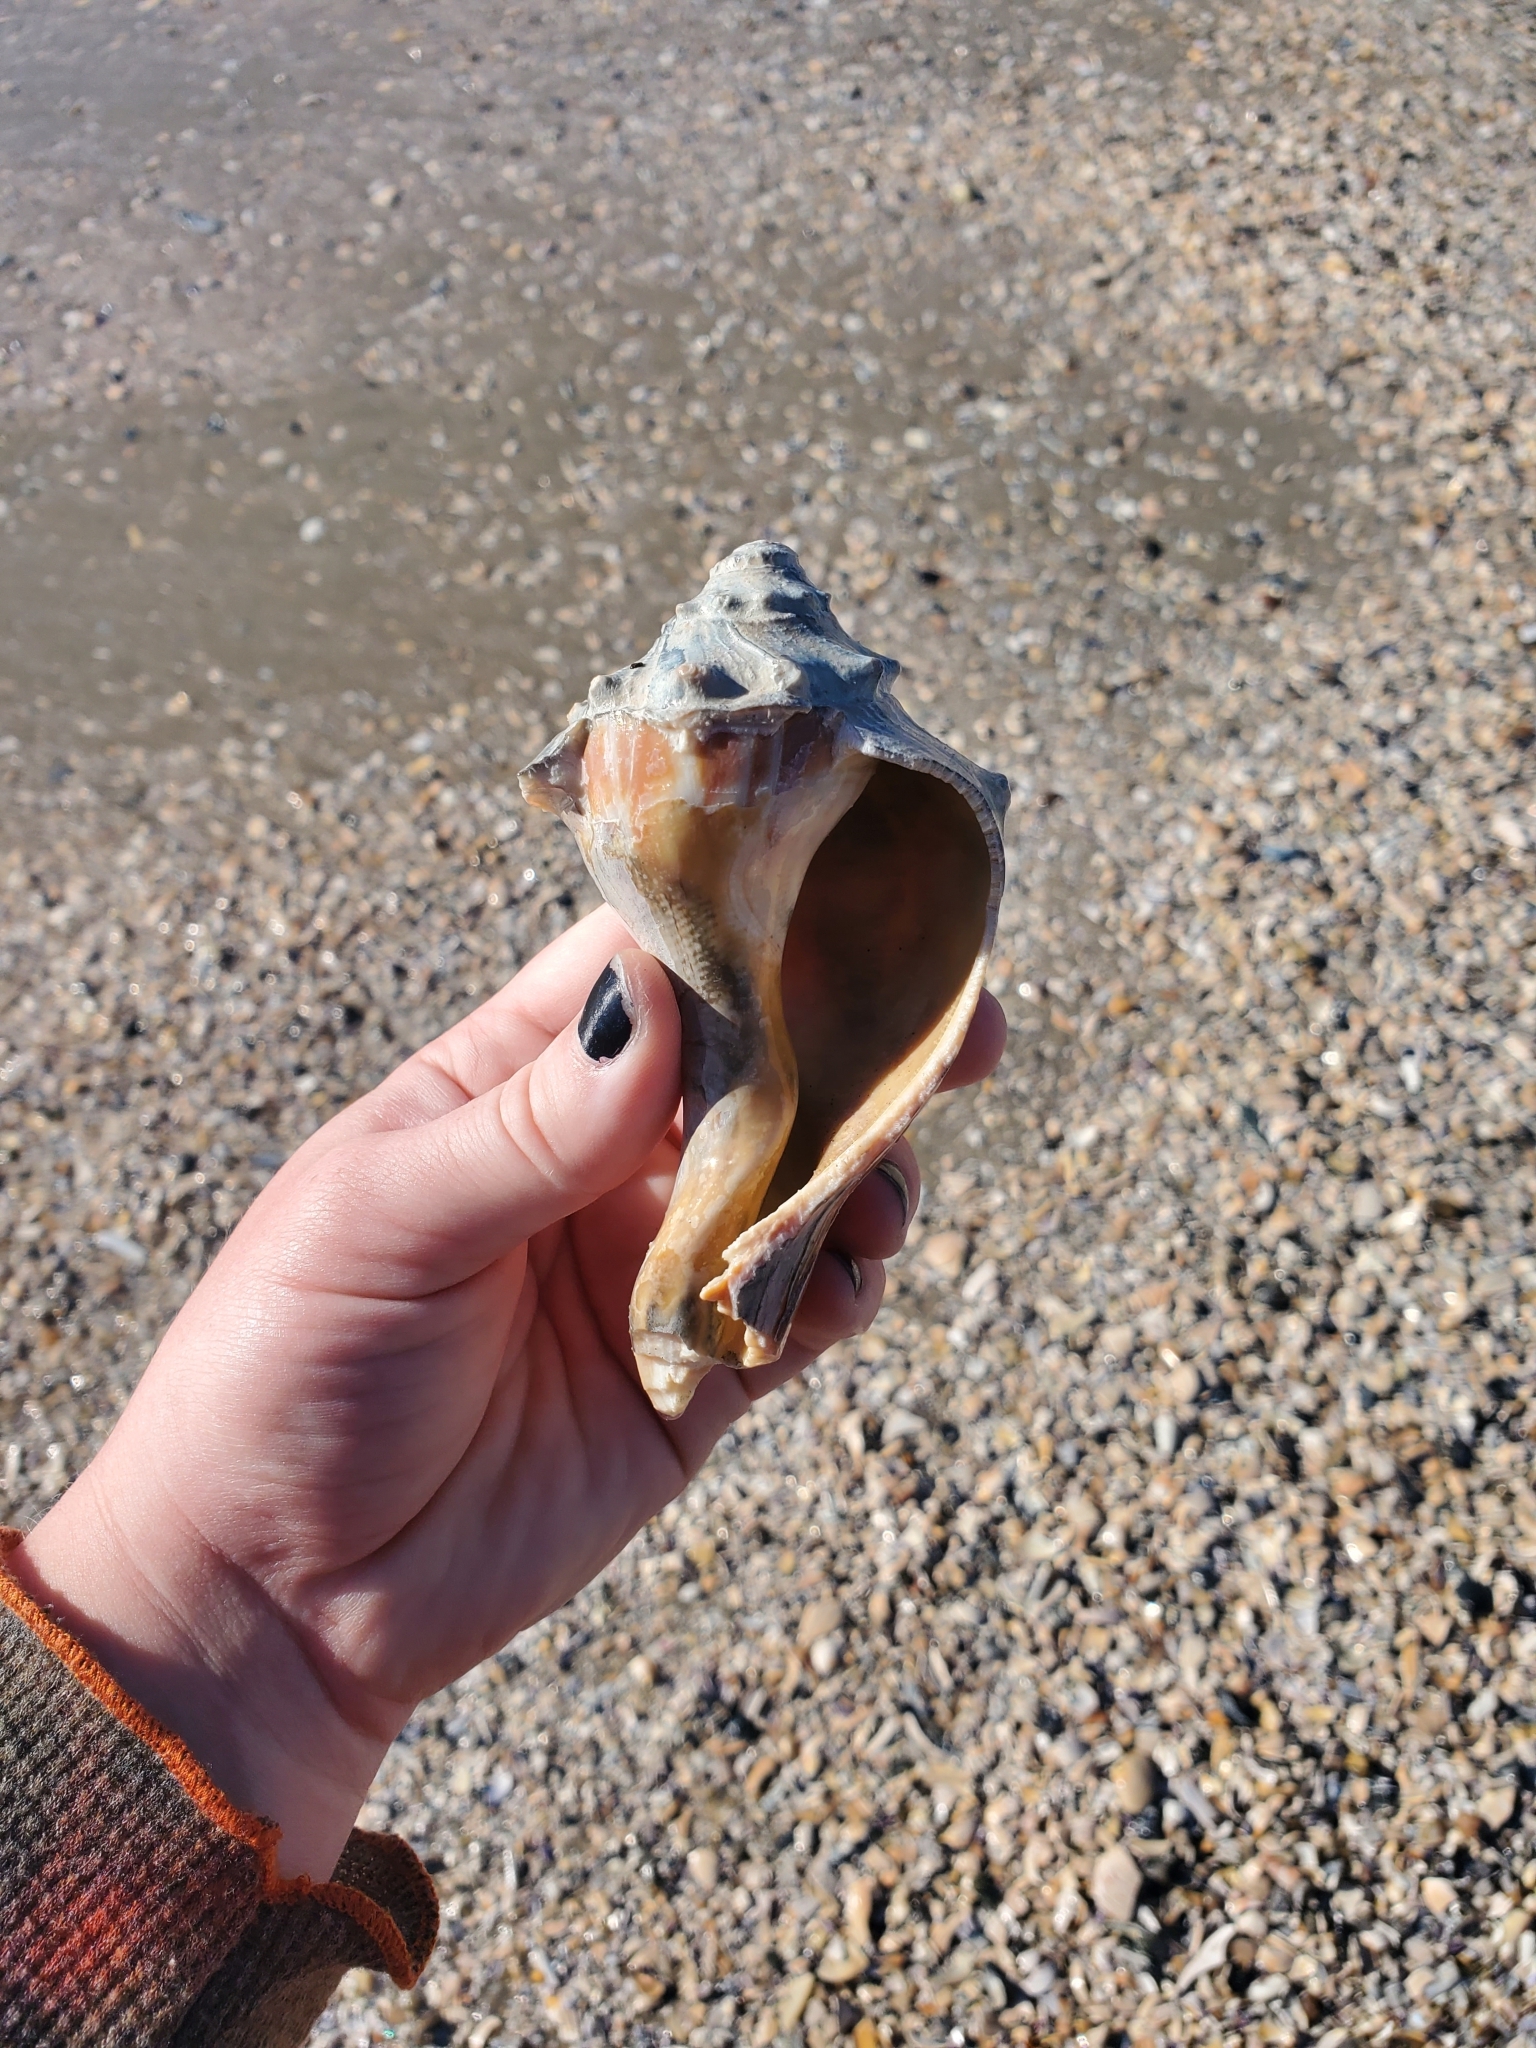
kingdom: Animalia
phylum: Mollusca
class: Gastropoda
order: Neogastropoda
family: Busyconidae
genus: Busycon
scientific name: Busycon carica
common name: Knobbed whelk
